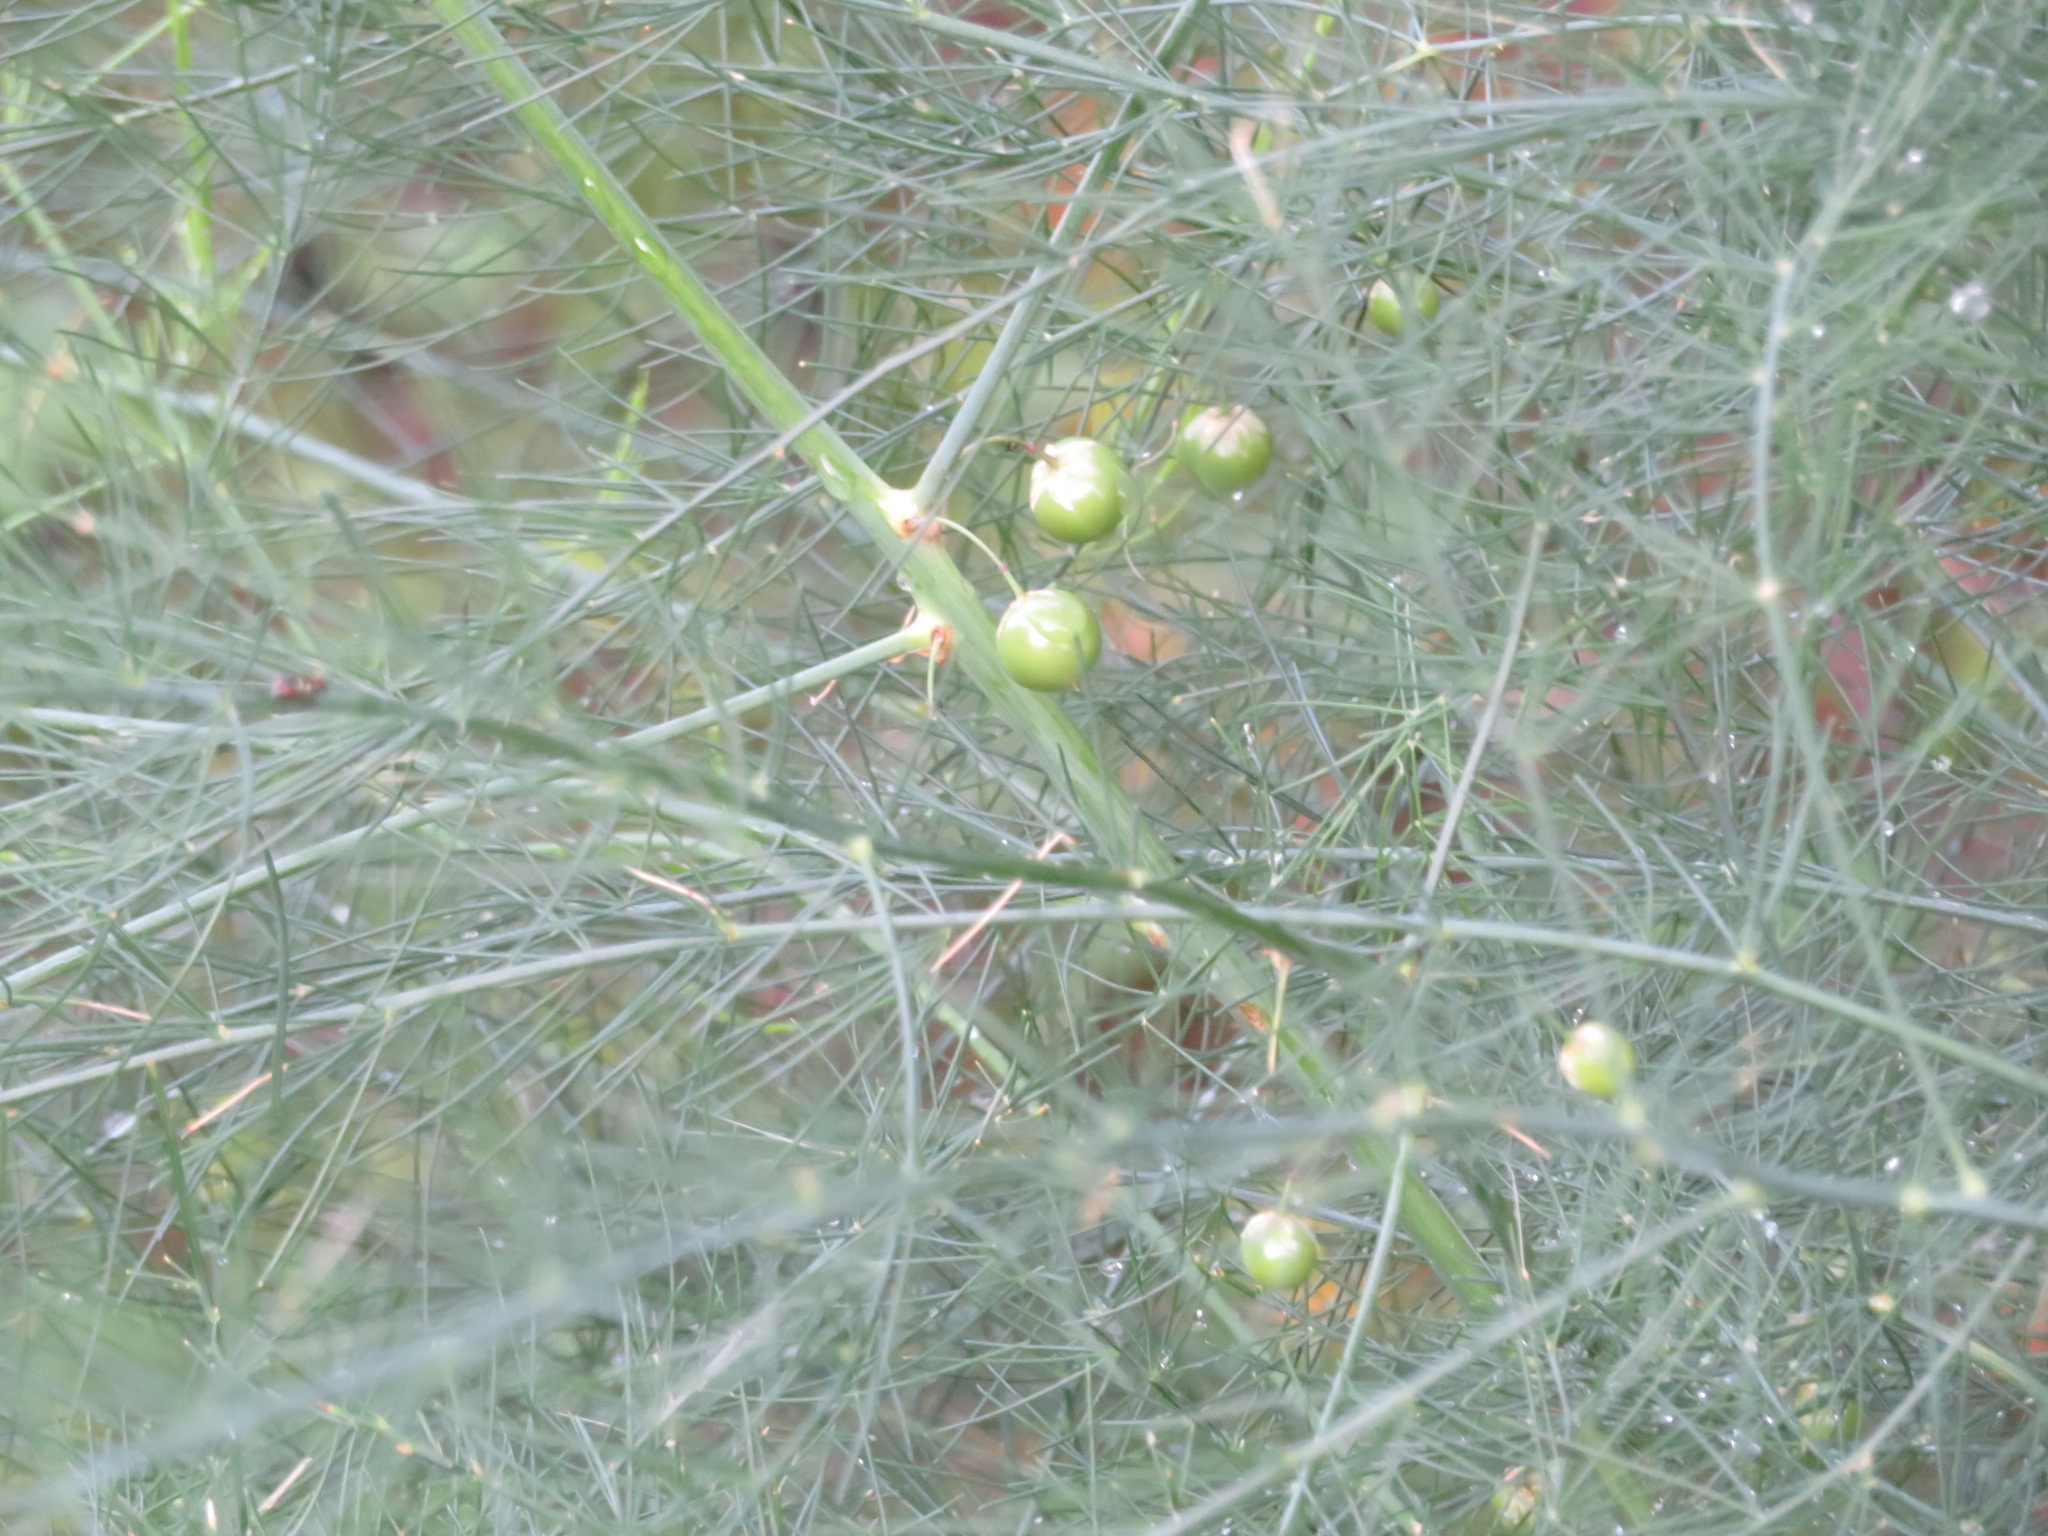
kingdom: Plantae
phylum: Tracheophyta
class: Liliopsida
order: Asparagales
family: Asparagaceae
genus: Asparagus
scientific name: Asparagus officinalis
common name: Garden asparagus
